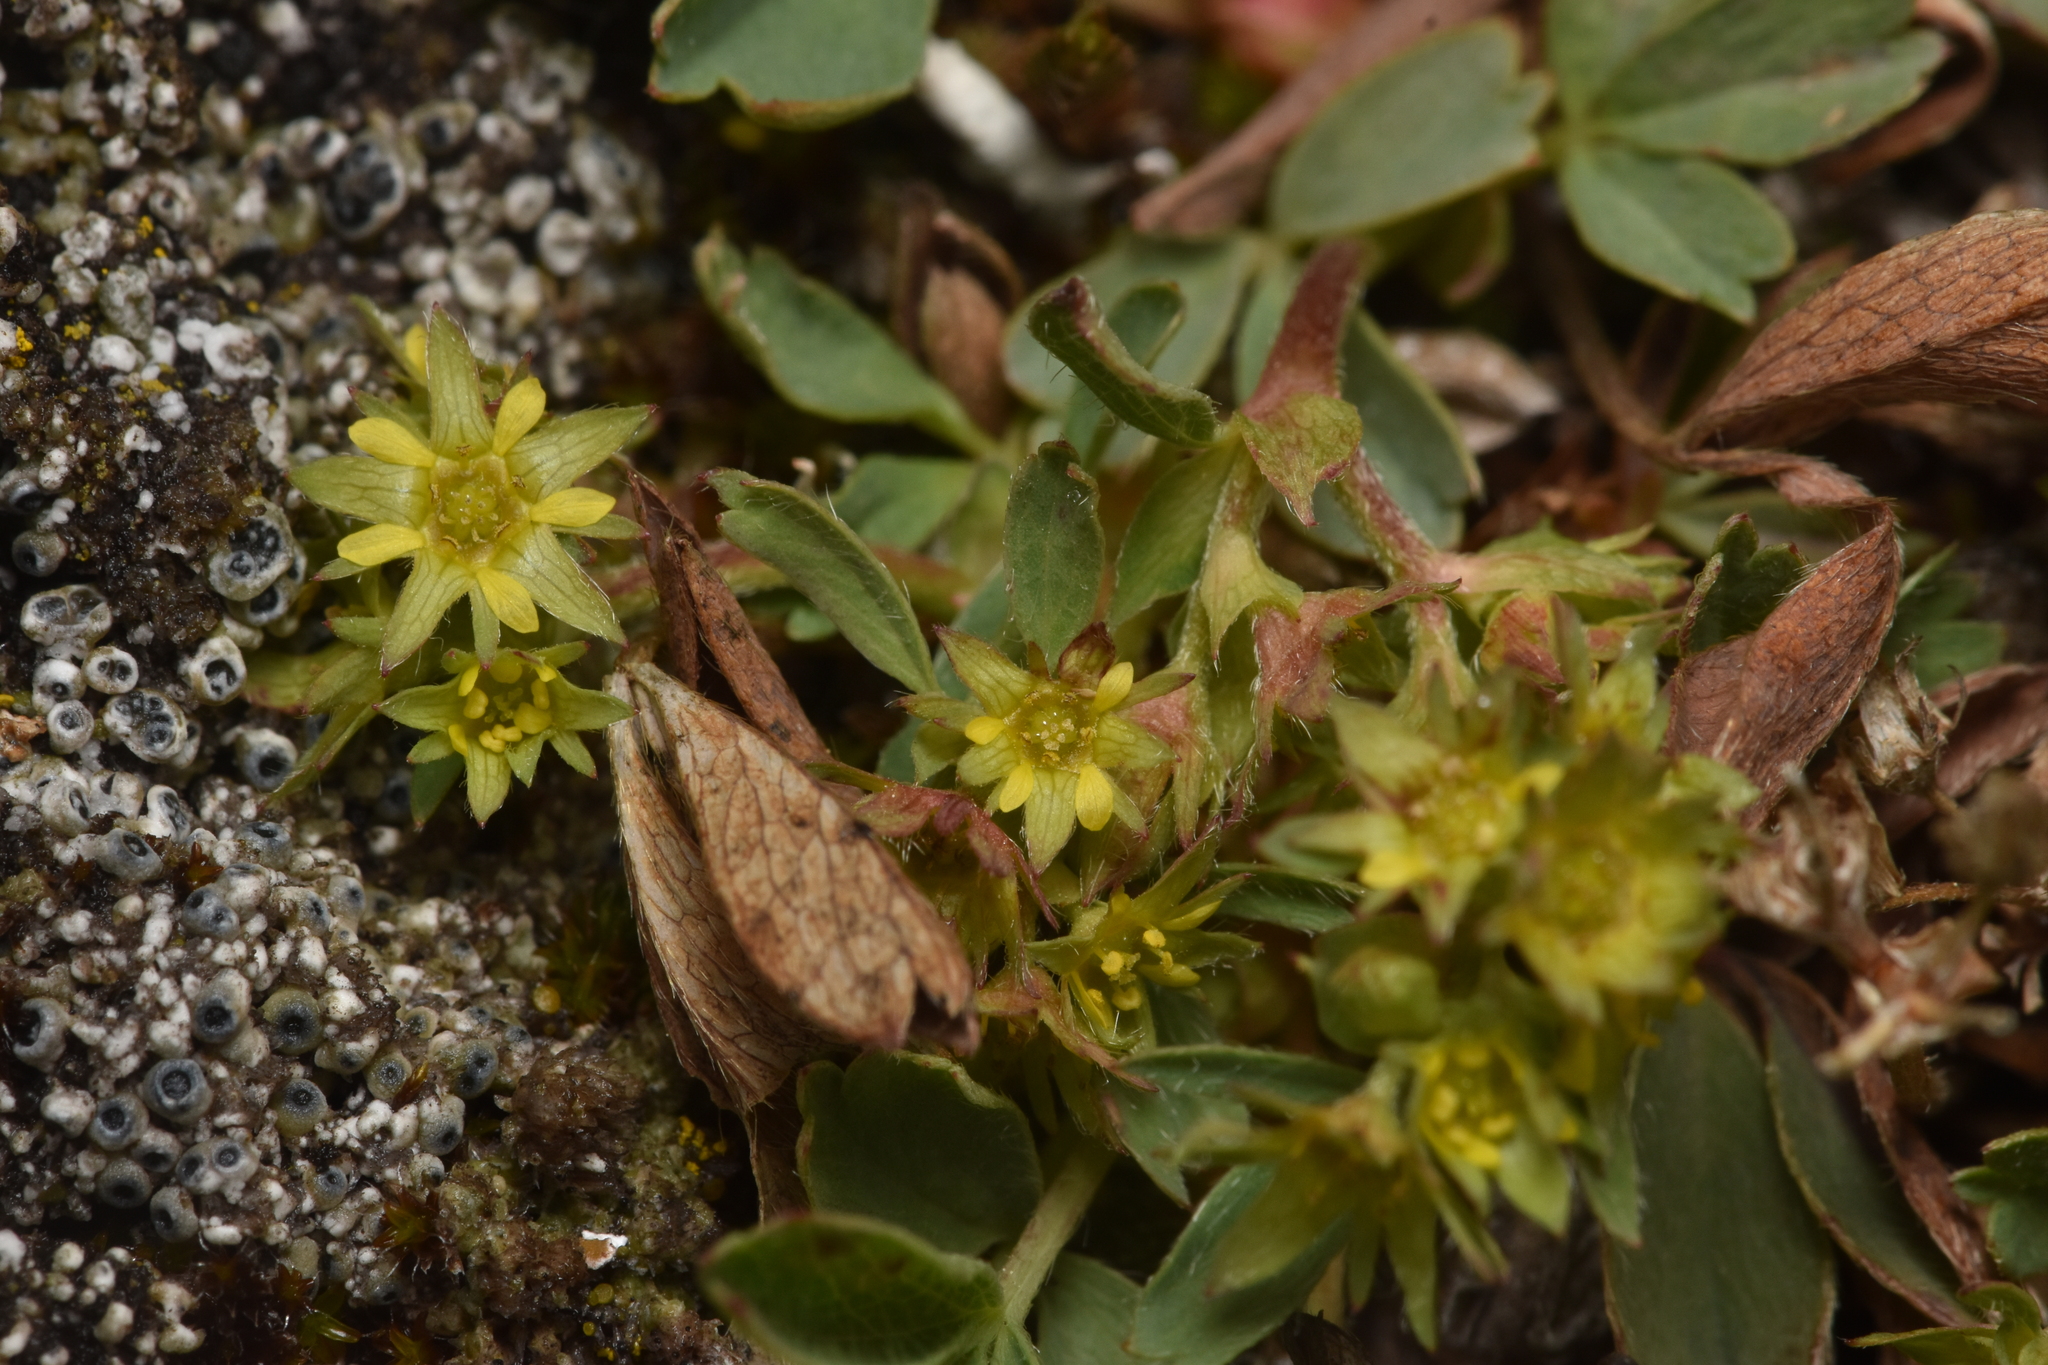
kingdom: Plantae
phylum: Tracheophyta
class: Magnoliopsida
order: Rosales
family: Rosaceae
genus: Sibbaldia
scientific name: Sibbaldia procumbens
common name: Creeping sibbaldia
